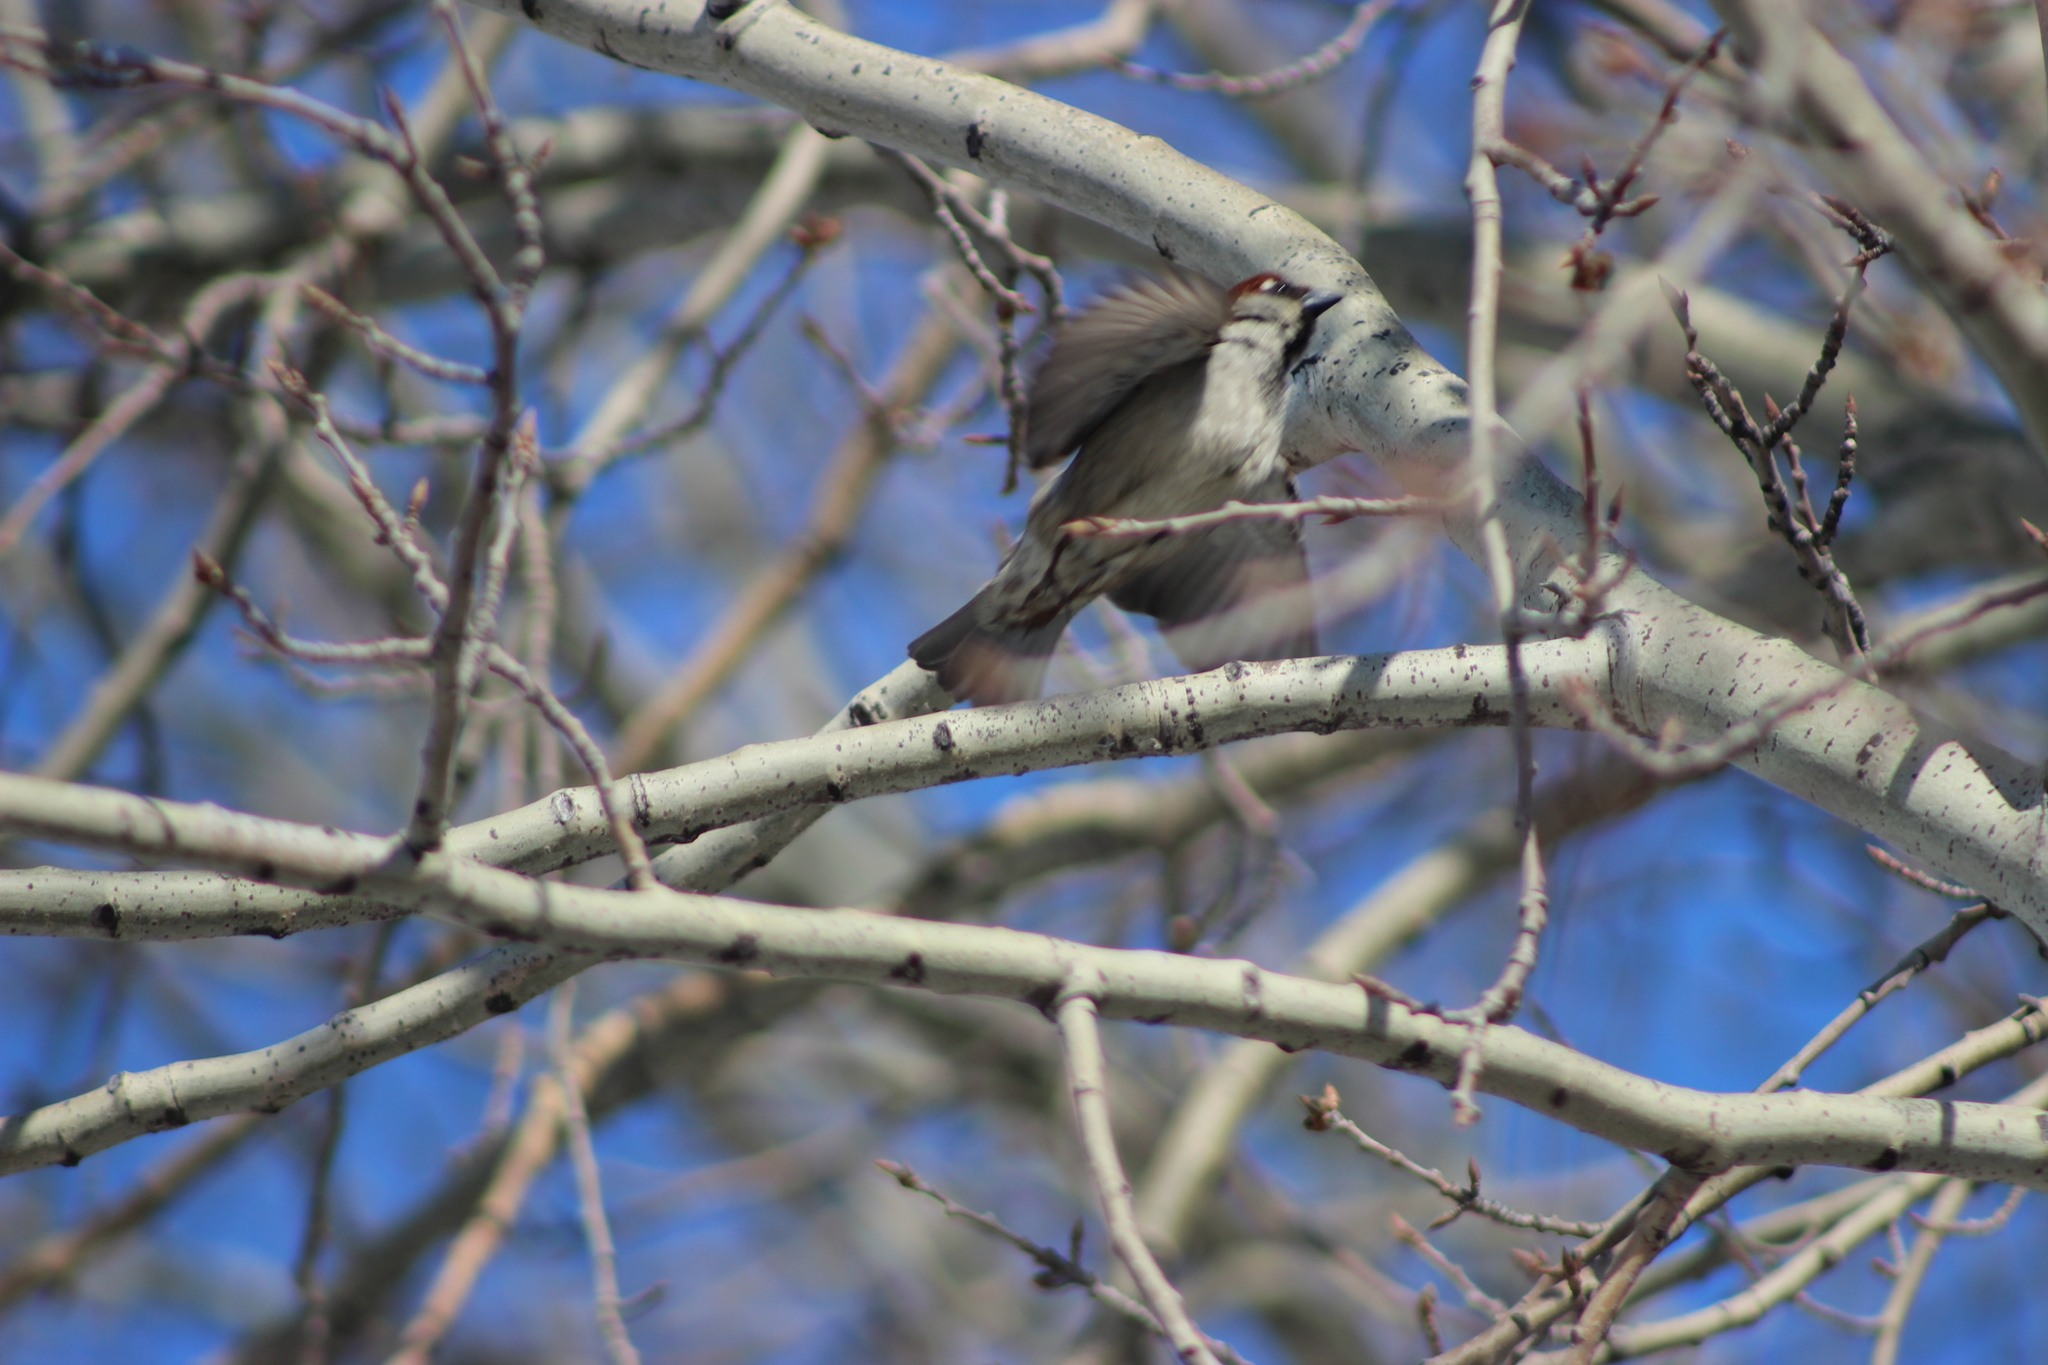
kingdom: Animalia
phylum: Chordata
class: Aves
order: Passeriformes
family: Passeridae
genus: Passer
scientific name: Passer domesticus
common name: House sparrow
